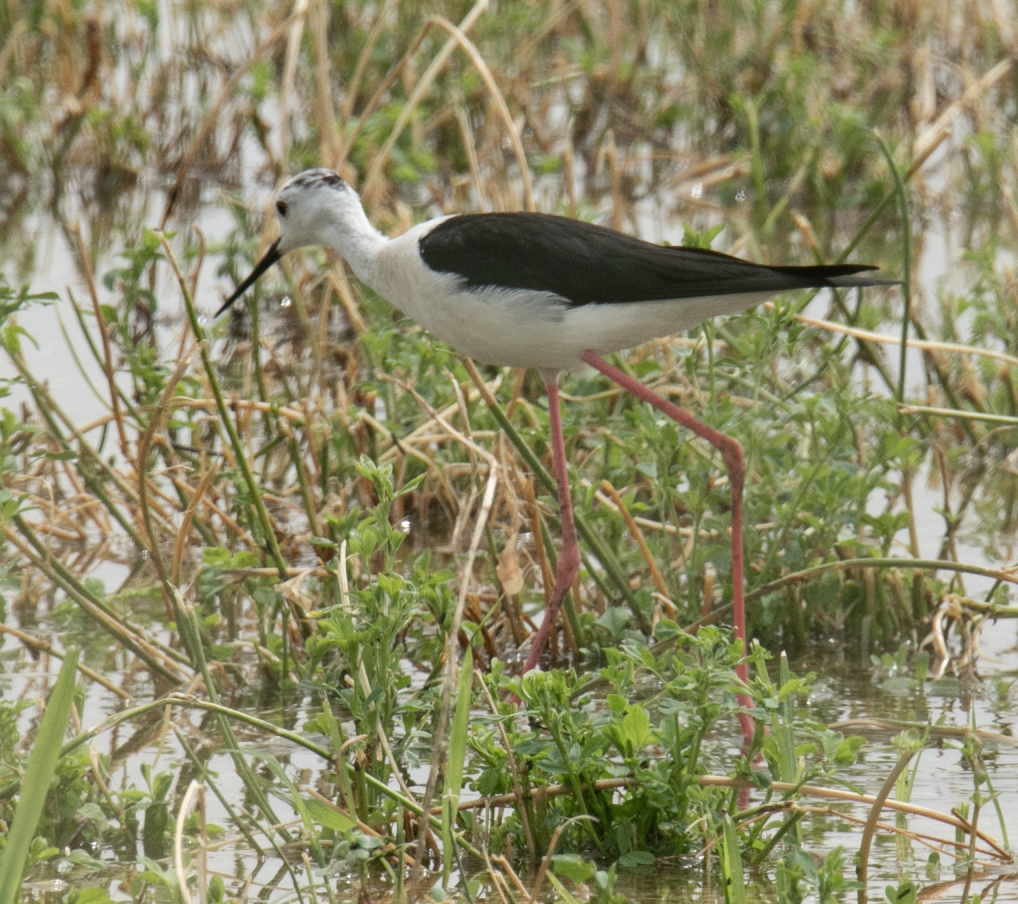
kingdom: Animalia
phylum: Chordata
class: Aves
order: Charadriiformes
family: Recurvirostridae
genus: Himantopus
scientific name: Himantopus himantopus
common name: Black-winged stilt
